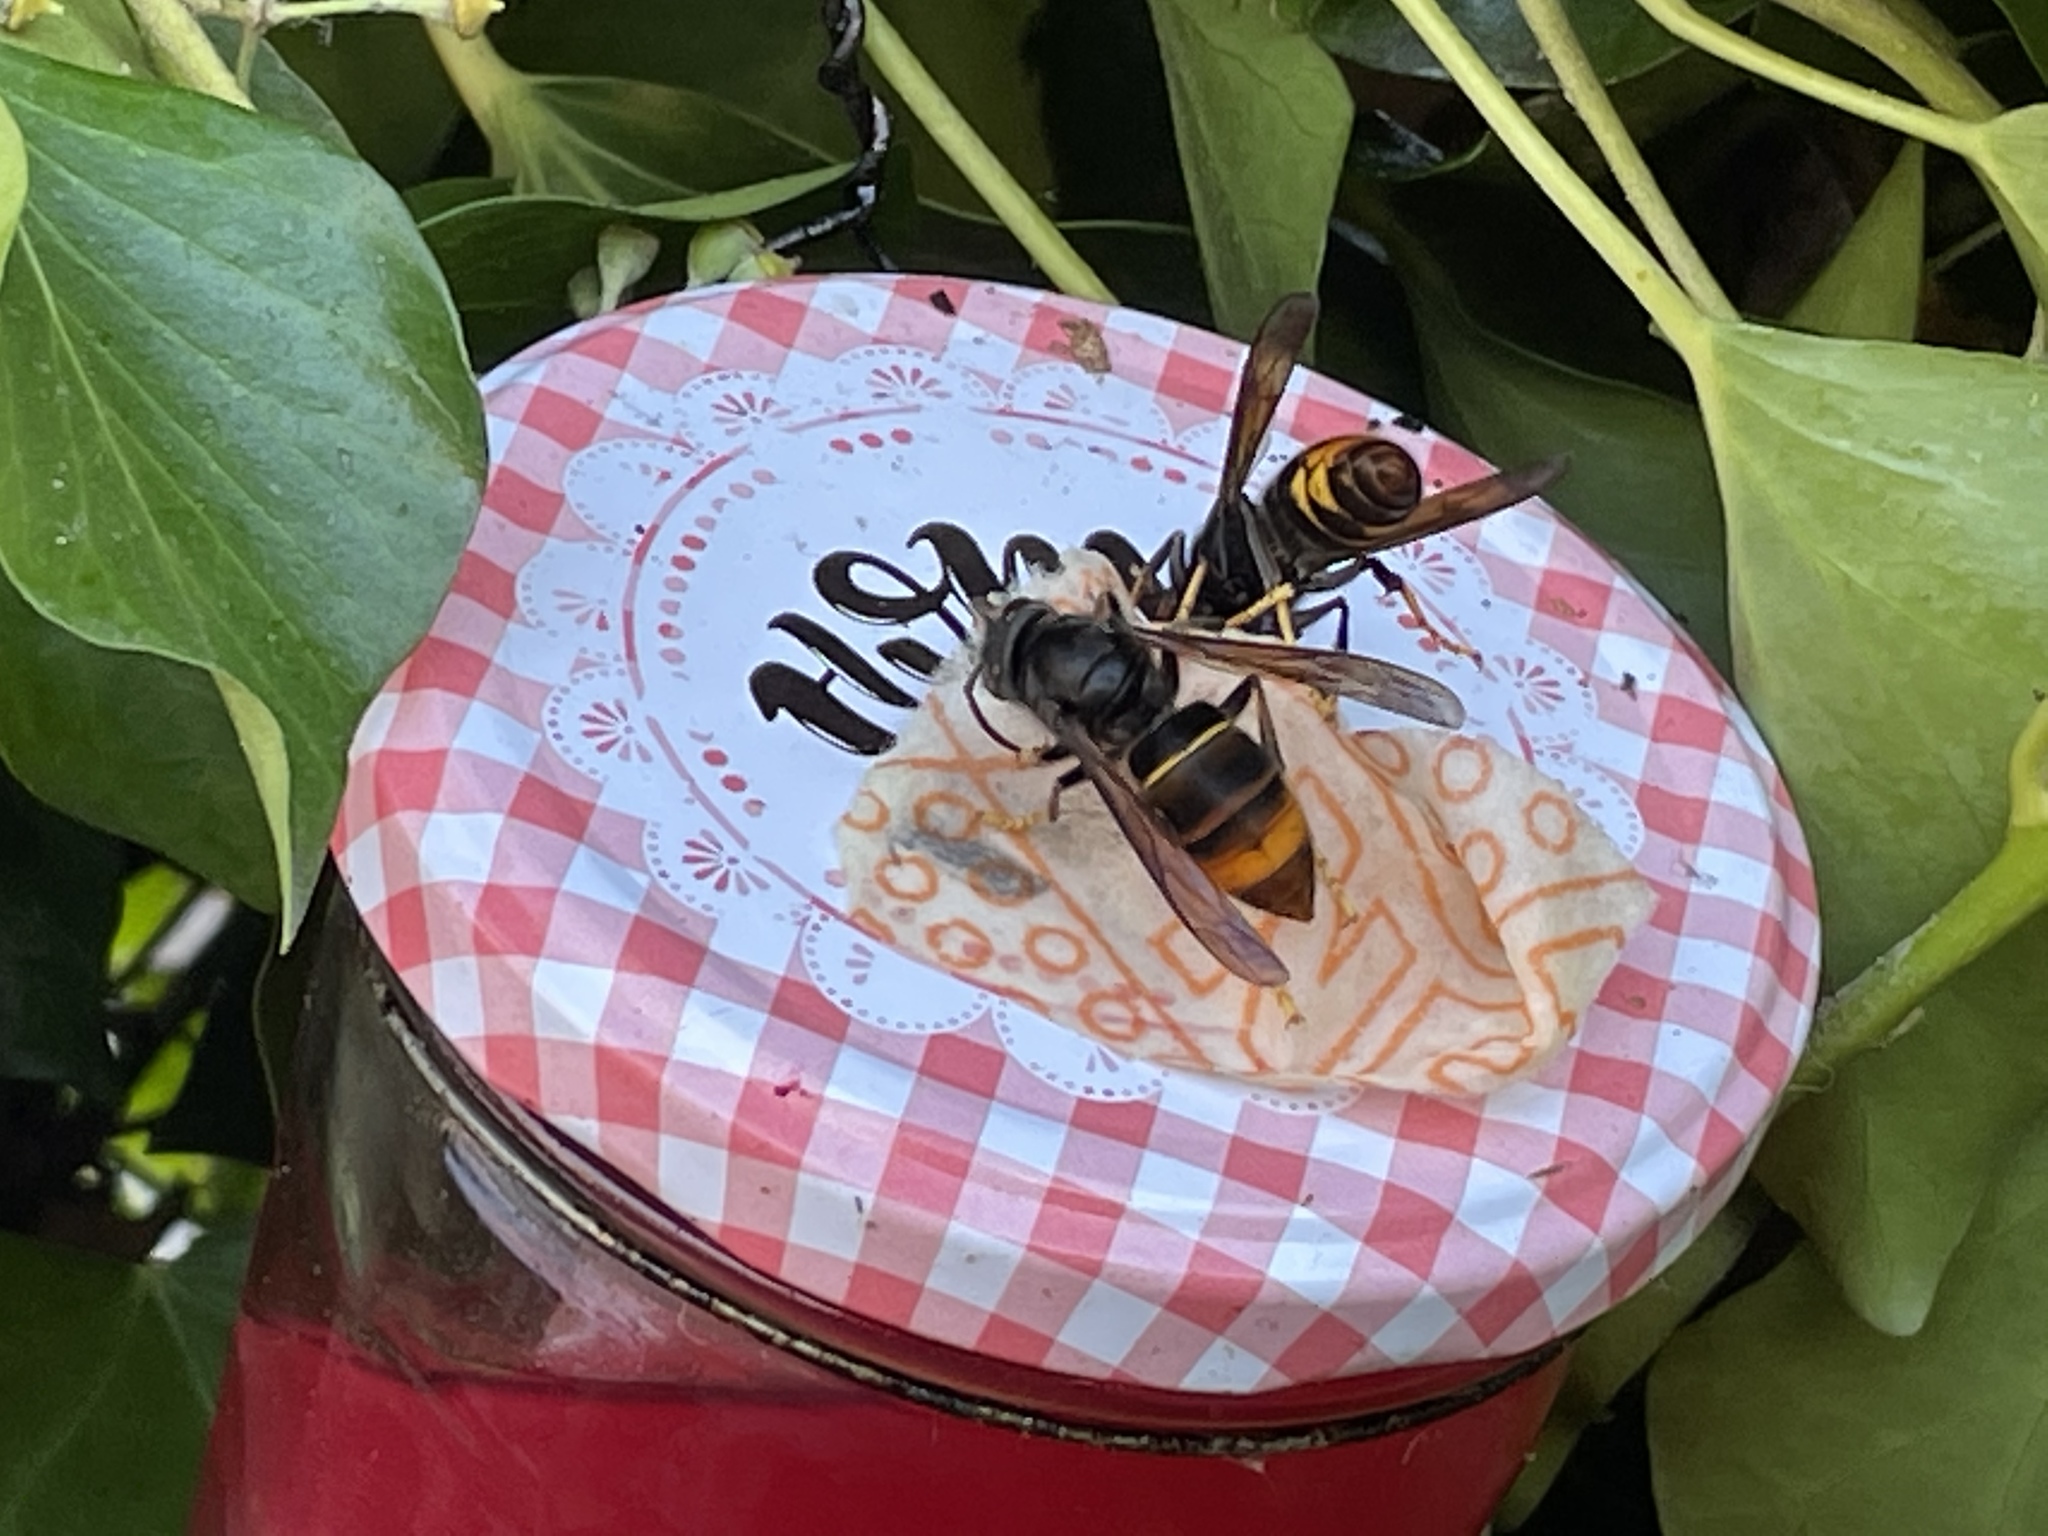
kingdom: Animalia
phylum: Arthropoda
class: Insecta
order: Hymenoptera
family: Vespidae
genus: Vespa
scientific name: Vespa velutina
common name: Asian hornet
